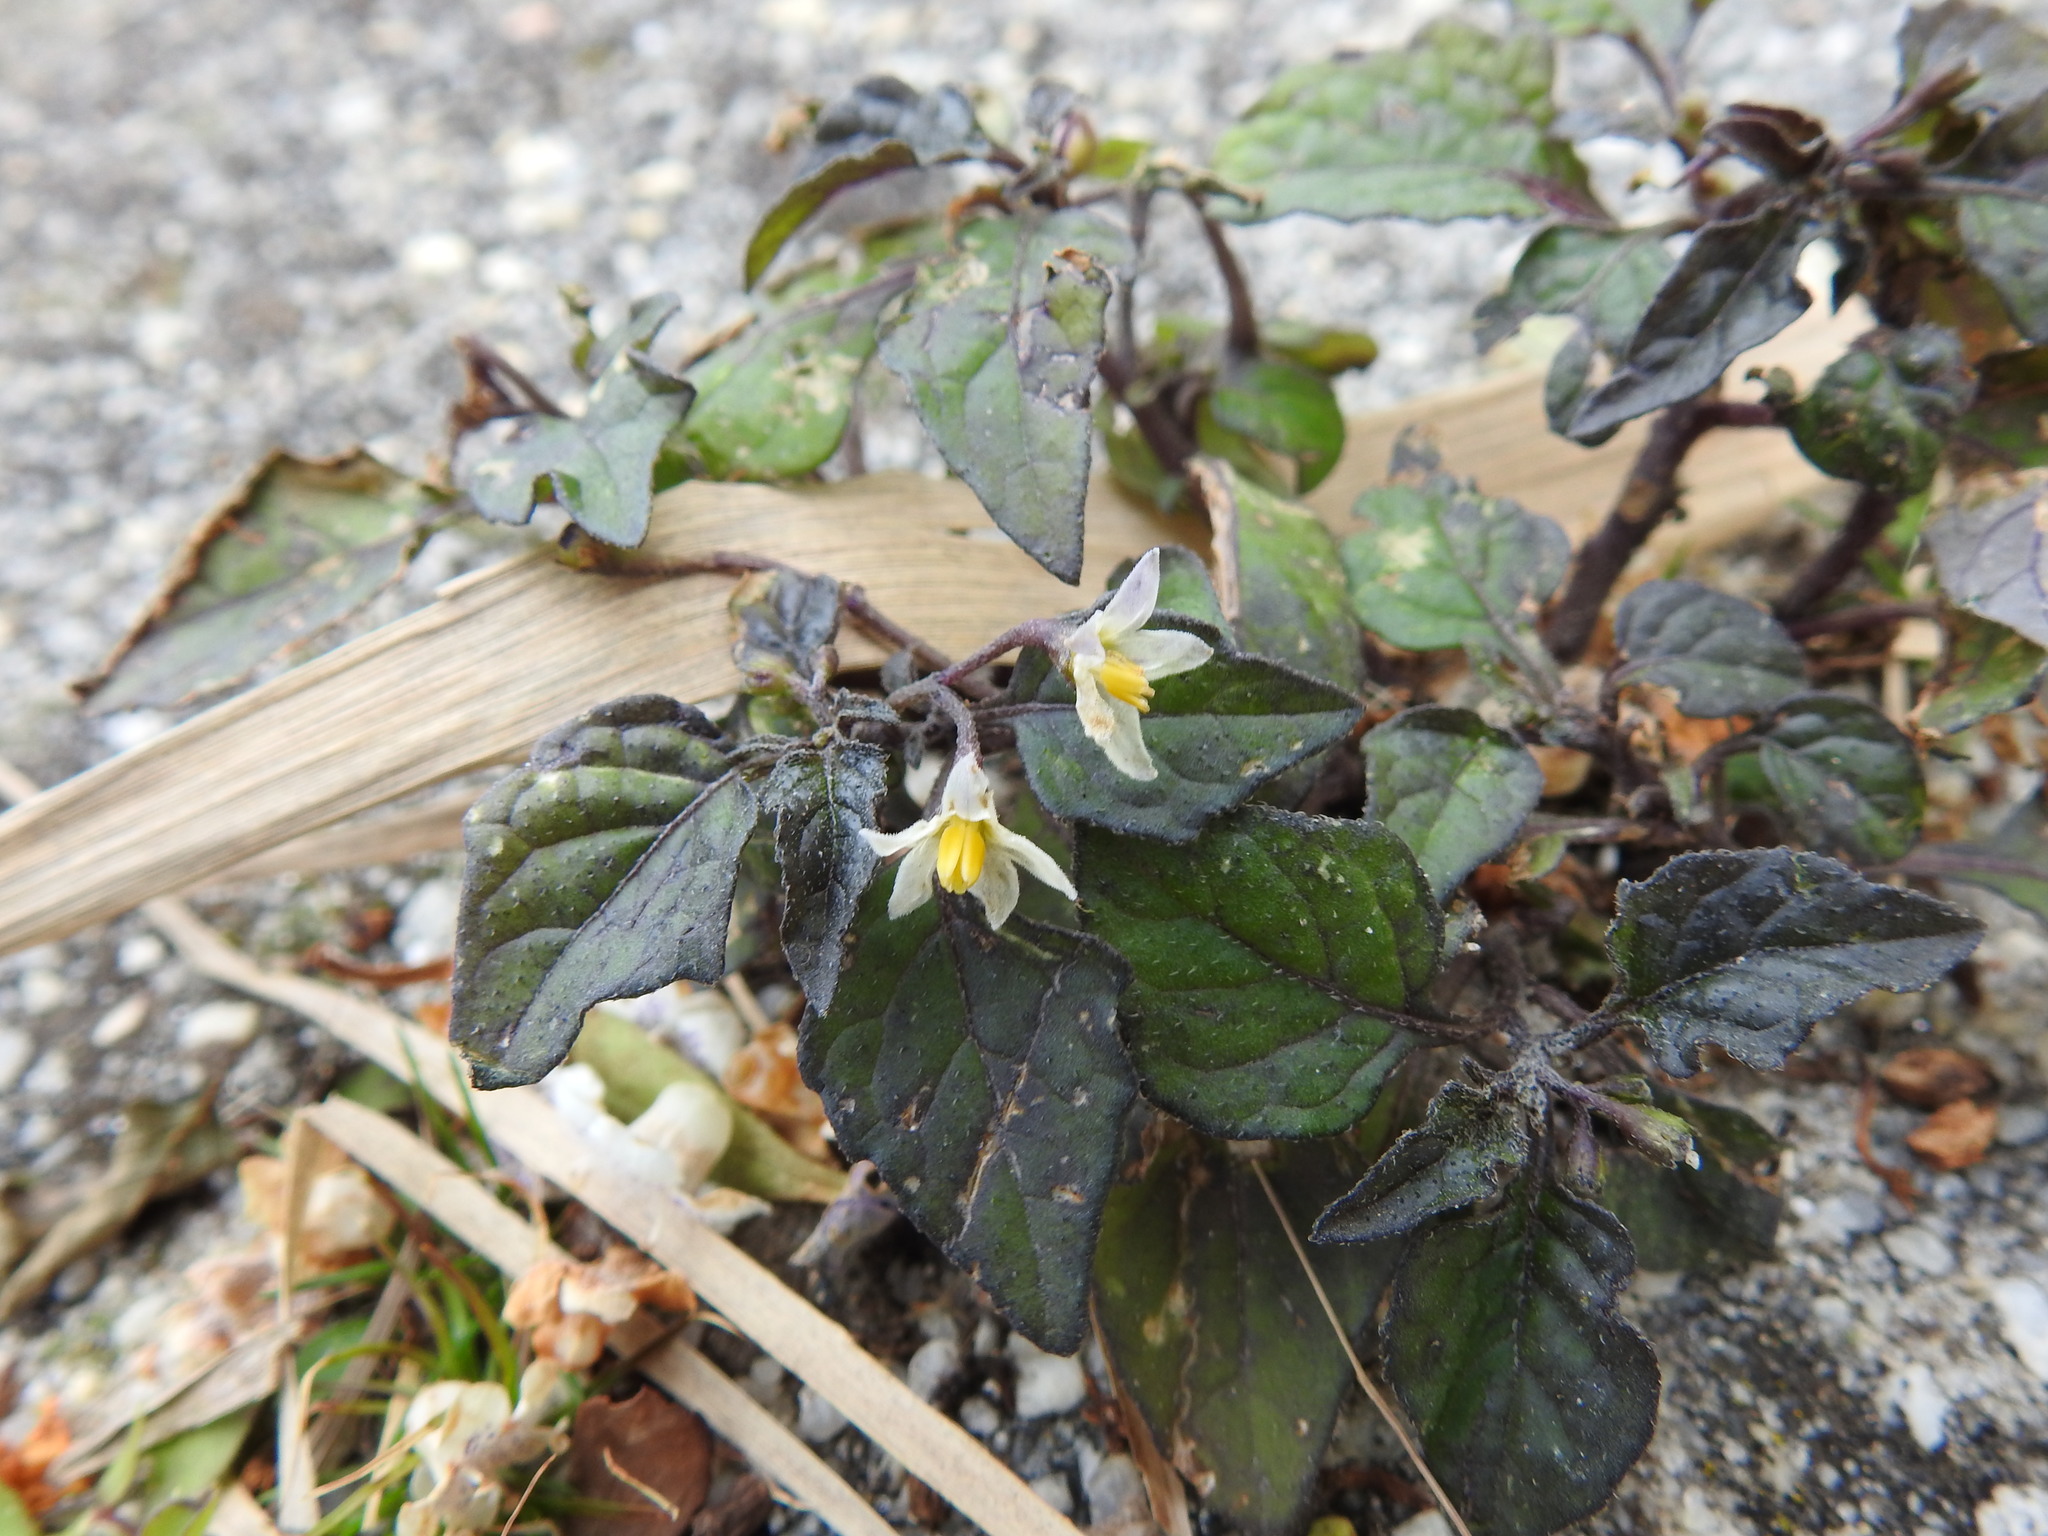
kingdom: Plantae
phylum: Tracheophyta
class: Magnoliopsida
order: Solanales
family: Solanaceae
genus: Solanum
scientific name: Solanum nigrum
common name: Black nightshade
